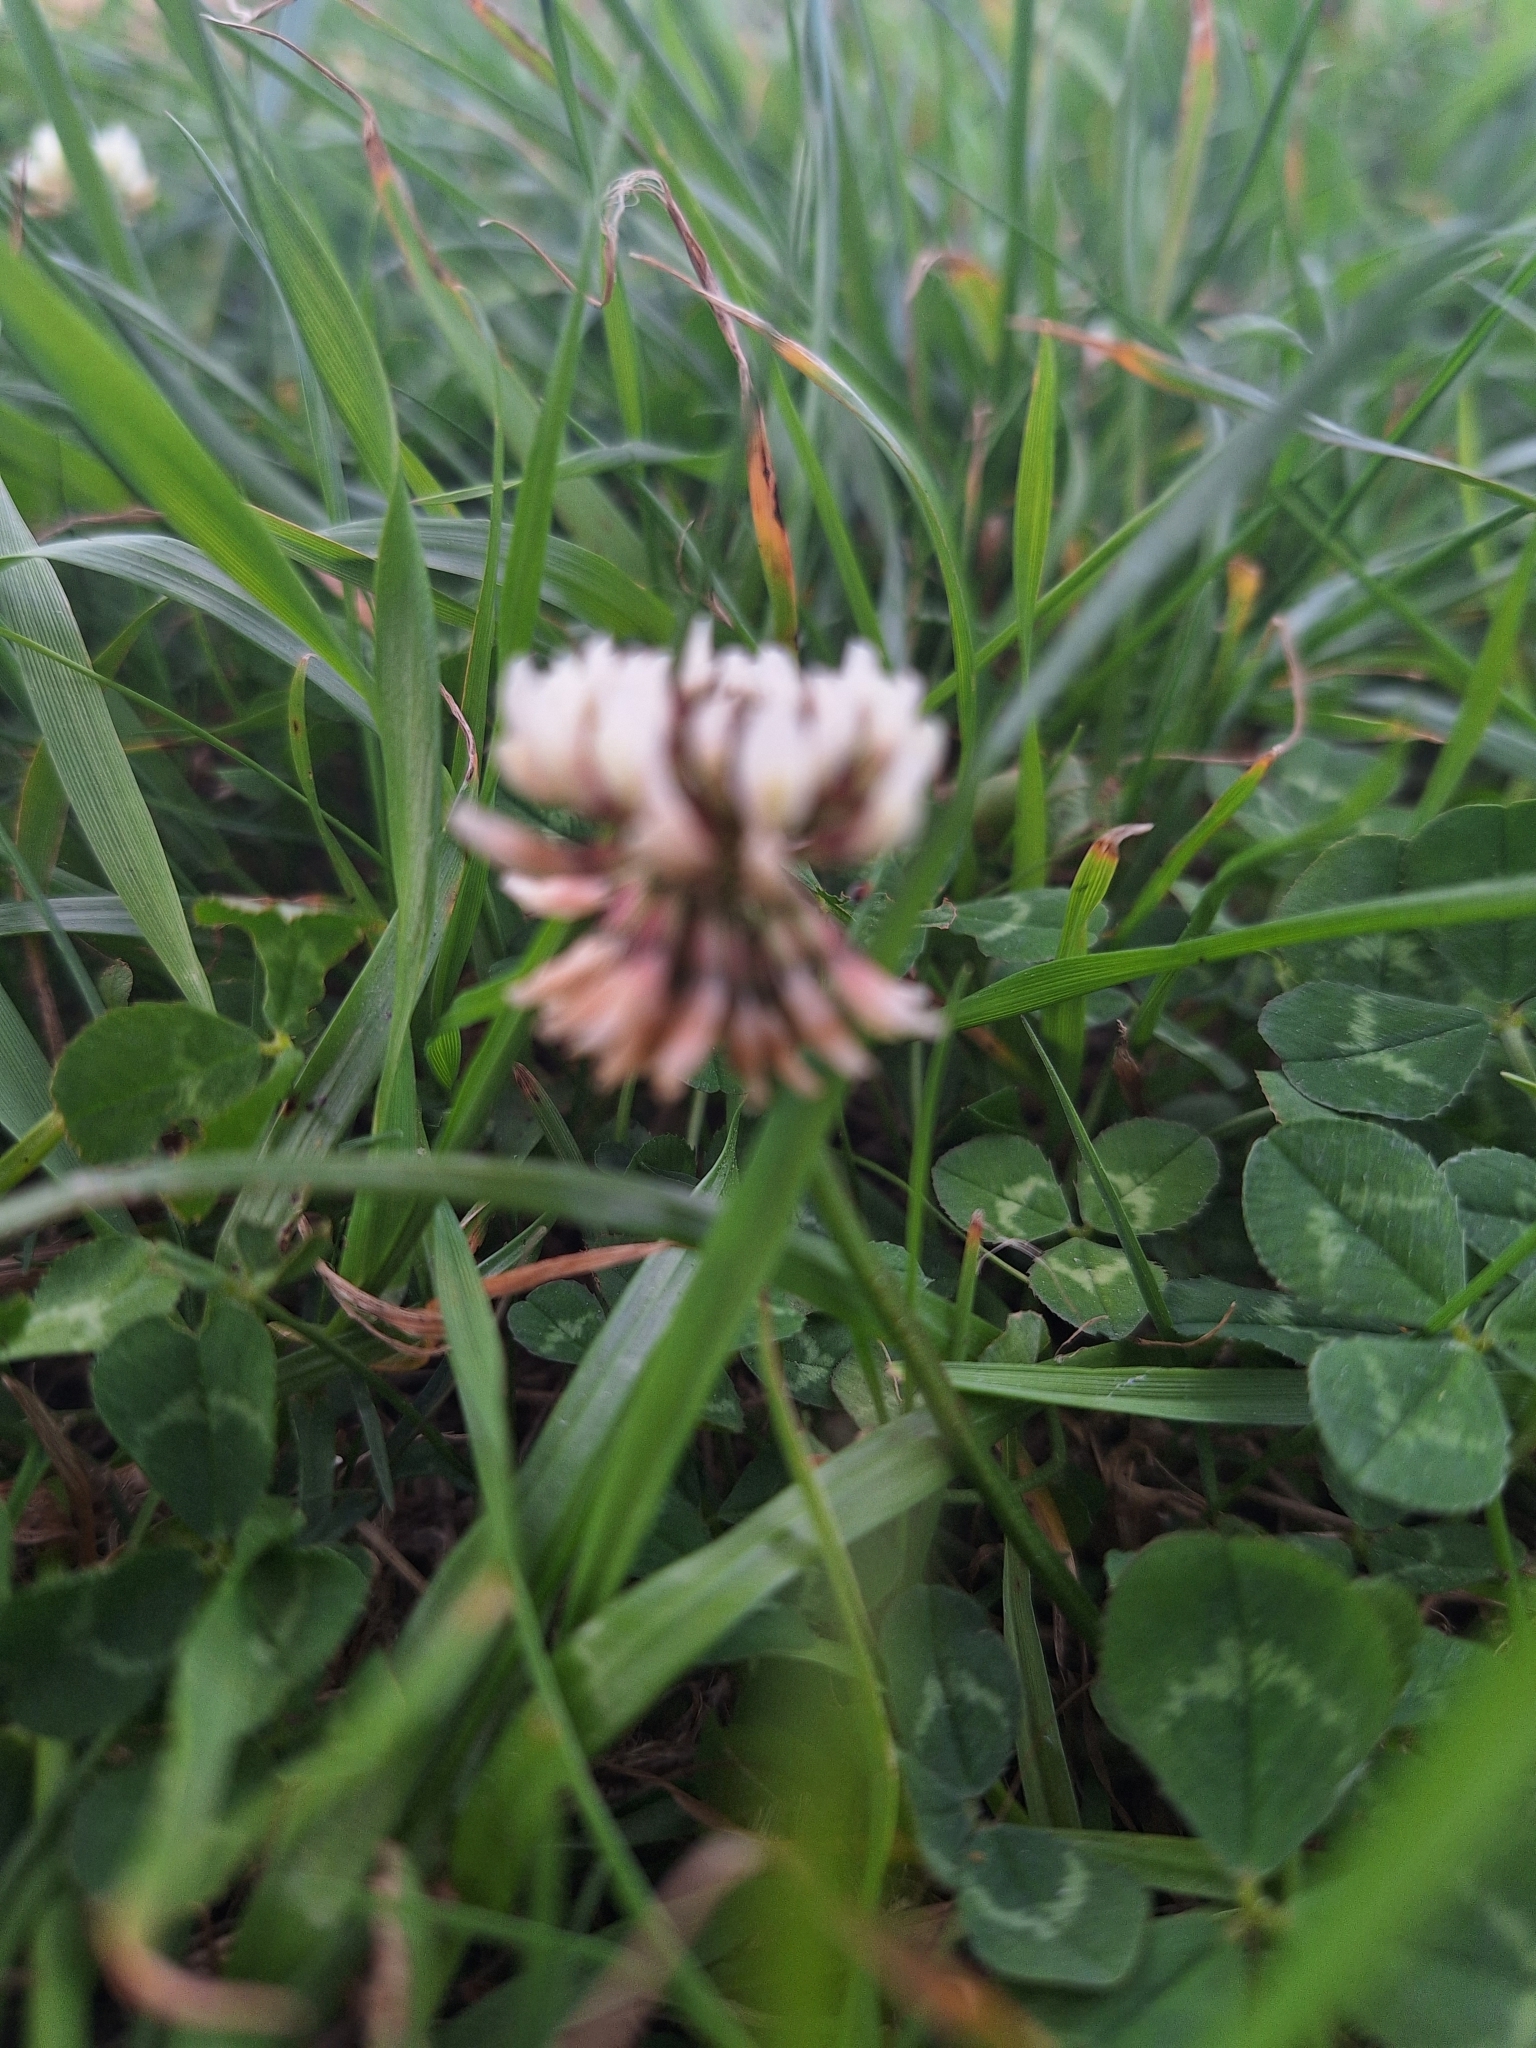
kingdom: Plantae
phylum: Tracheophyta
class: Magnoliopsida
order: Fabales
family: Fabaceae
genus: Trifolium
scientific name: Trifolium repens
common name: White clover
